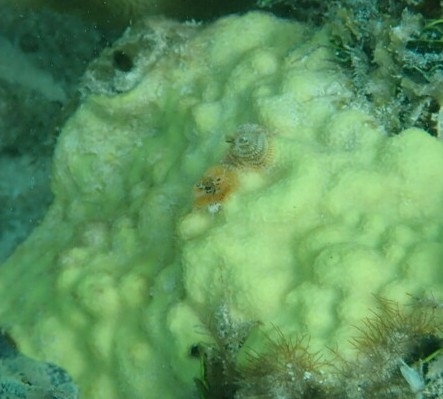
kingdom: Animalia
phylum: Cnidaria
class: Anthozoa
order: Scleractinia
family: Poritidae
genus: Porites
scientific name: Porites astreoides
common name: Mustard hill coral
